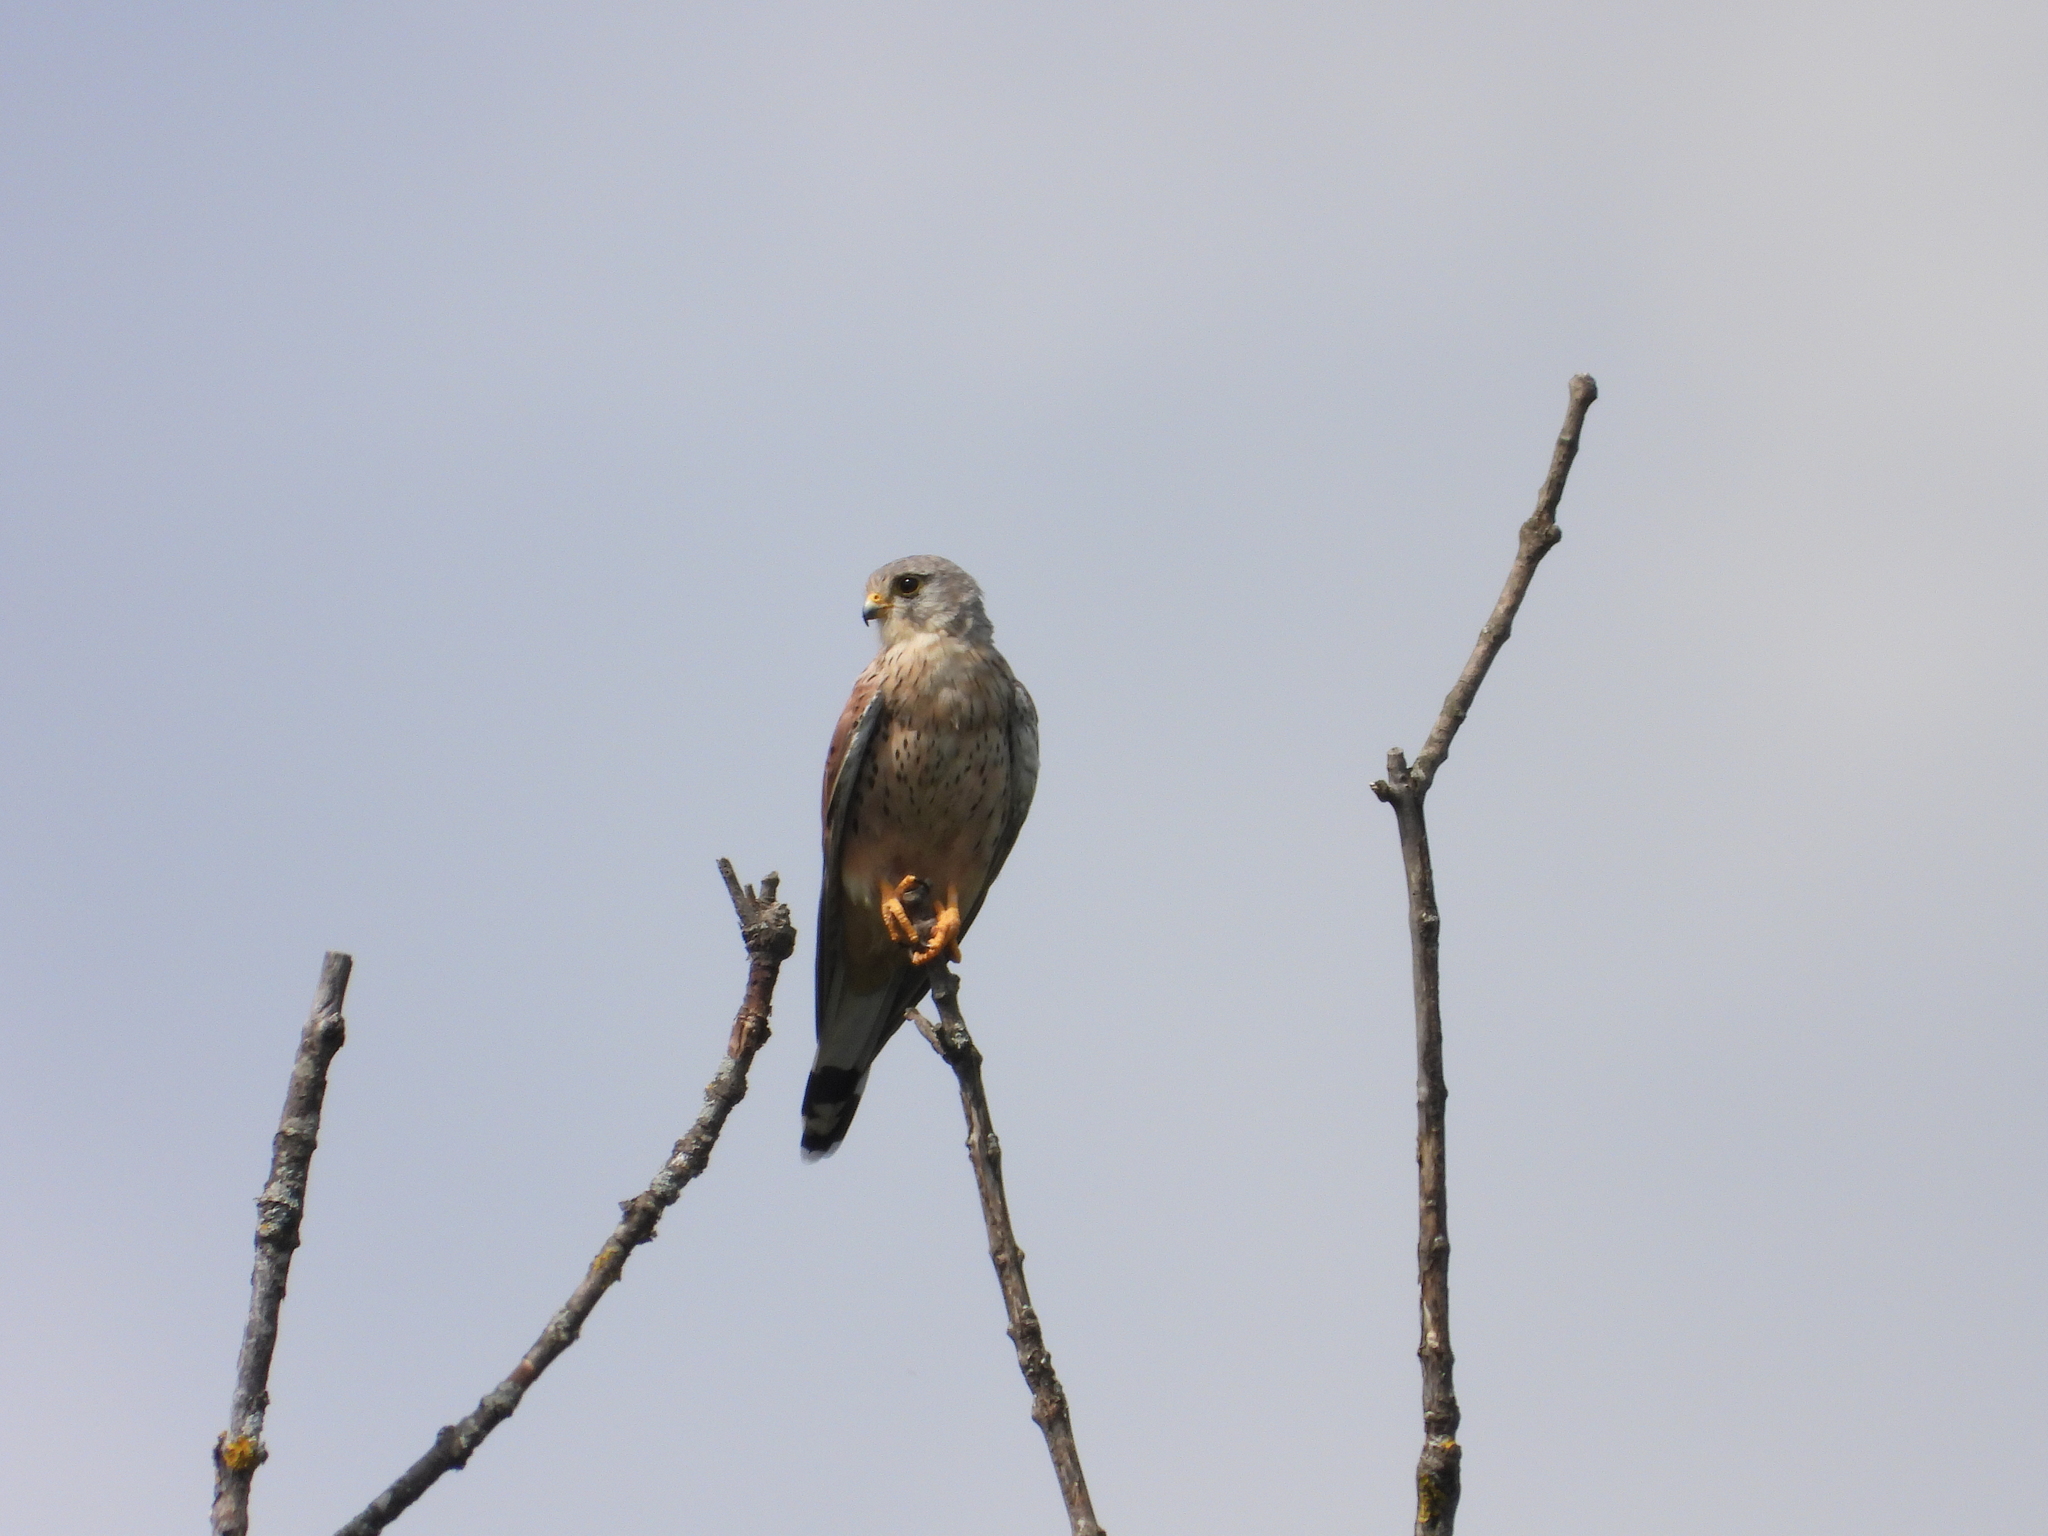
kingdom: Animalia
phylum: Chordata
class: Aves
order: Falconiformes
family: Falconidae
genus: Falco
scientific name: Falco tinnunculus
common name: Common kestrel
